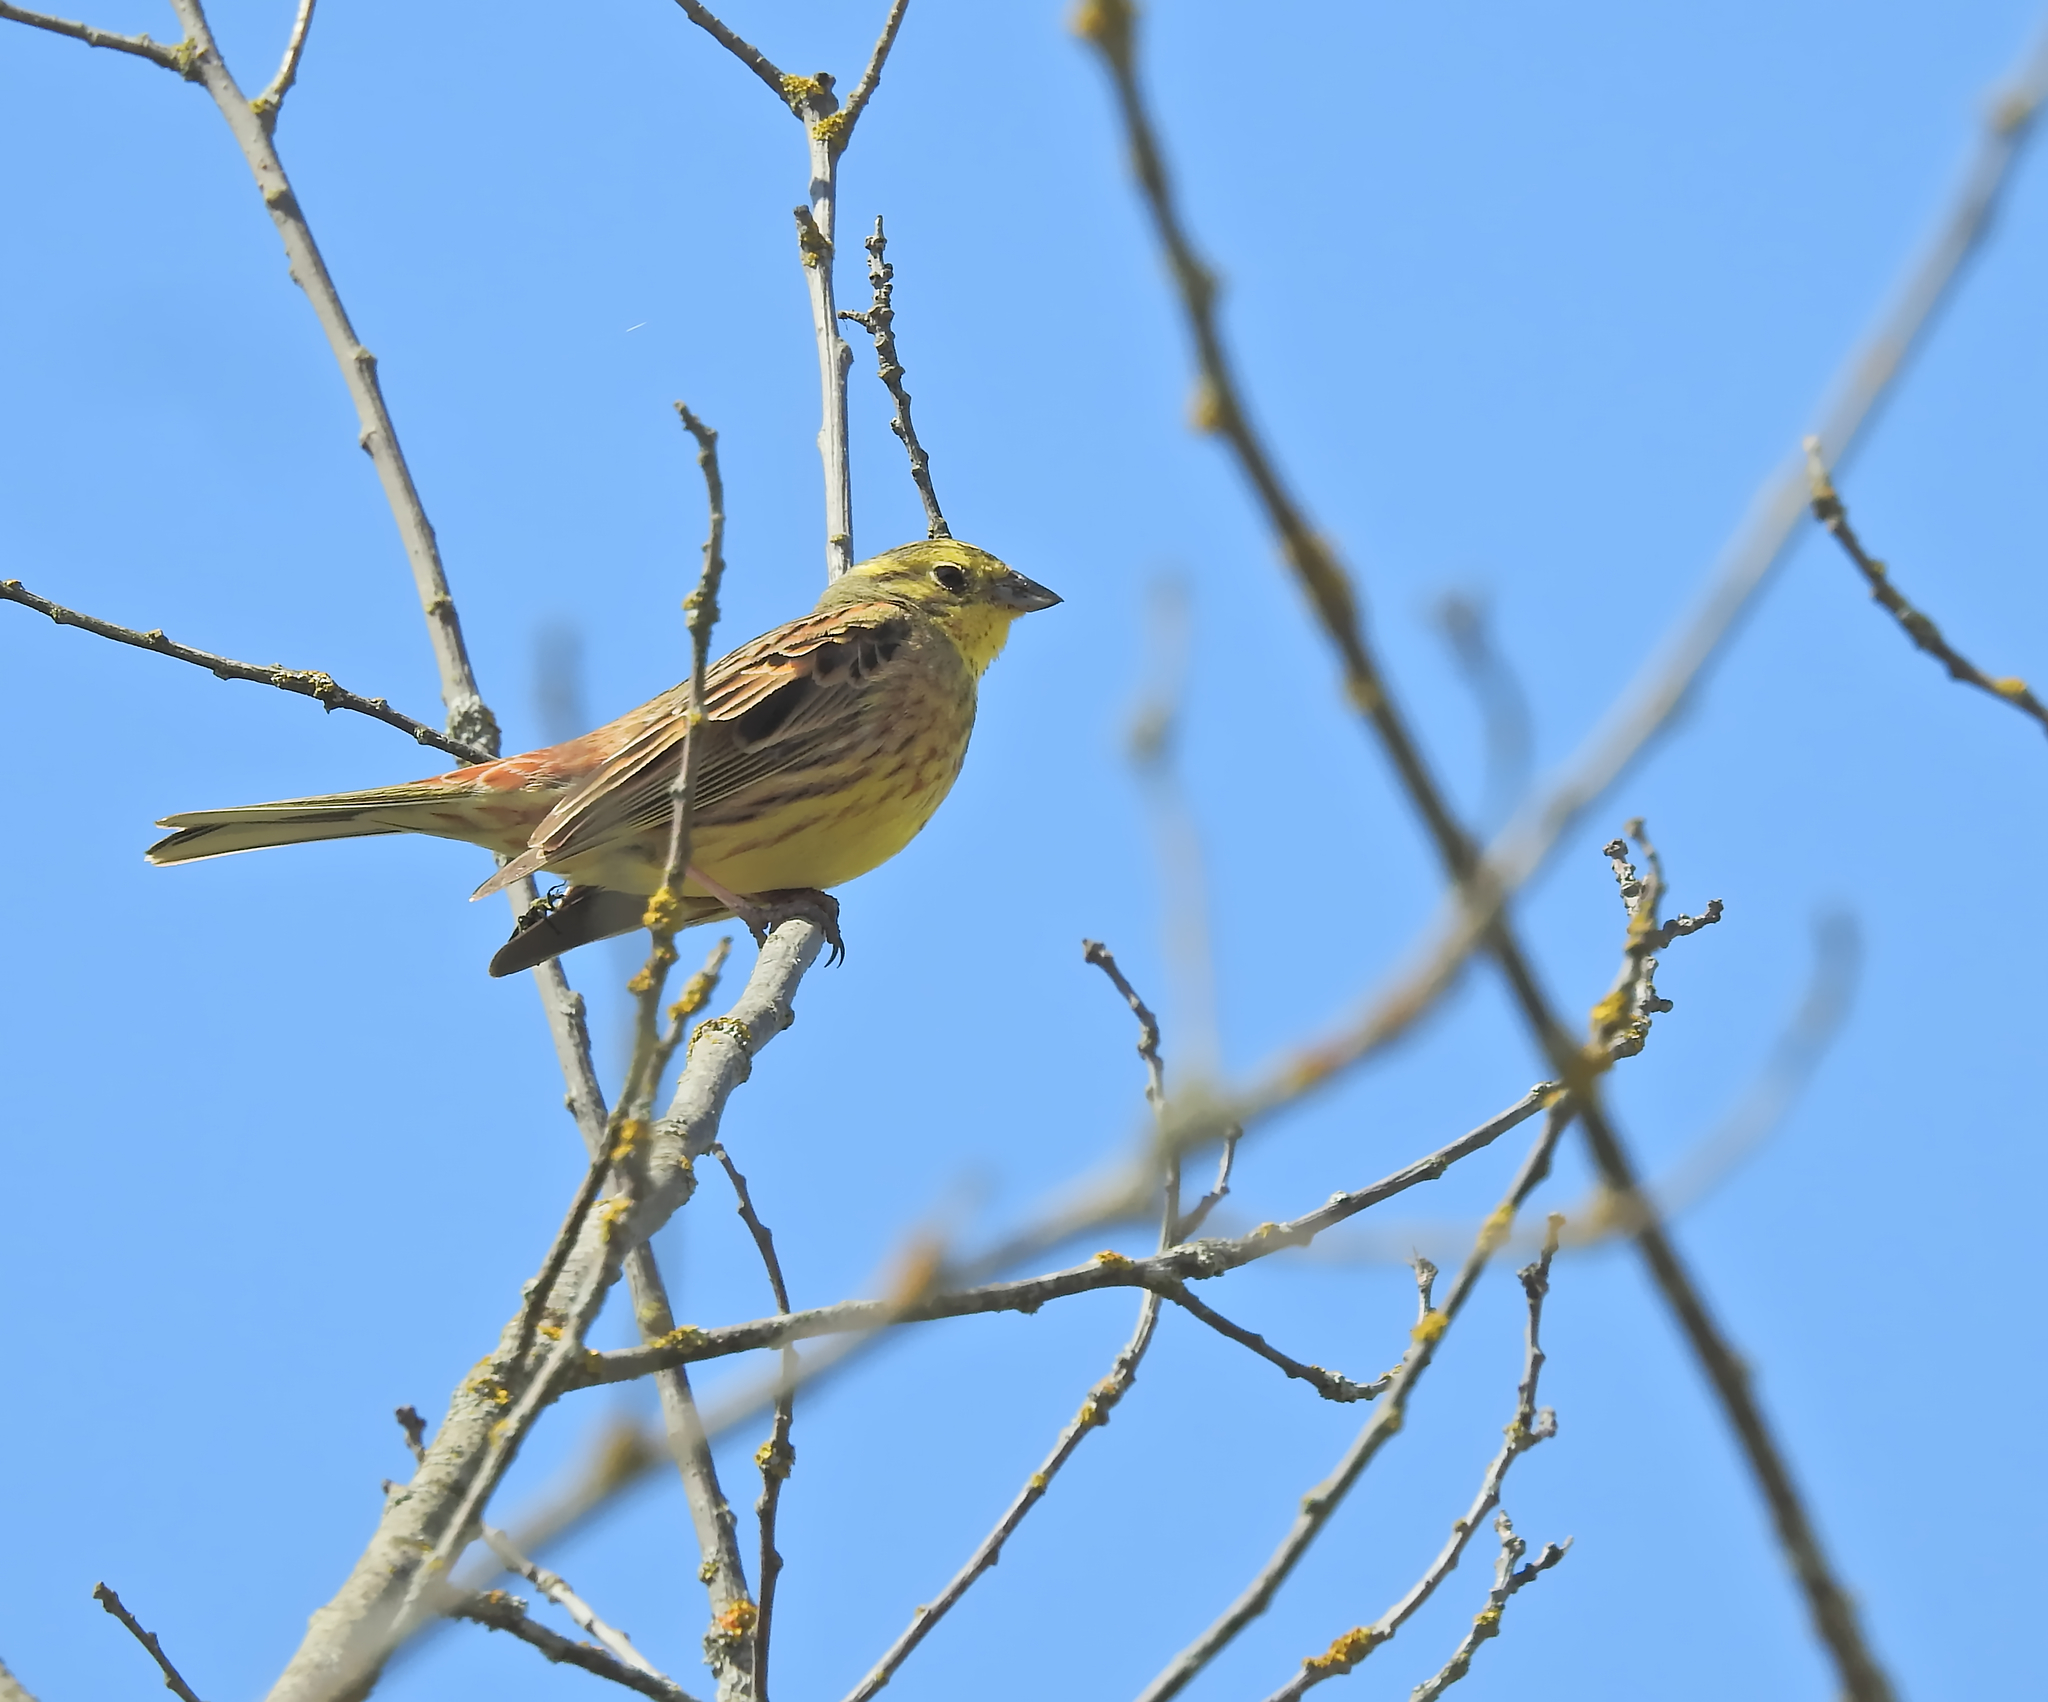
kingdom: Animalia
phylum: Chordata
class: Aves
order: Passeriformes
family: Emberizidae
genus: Emberiza
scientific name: Emberiza citrinella
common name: Yellowhammer
